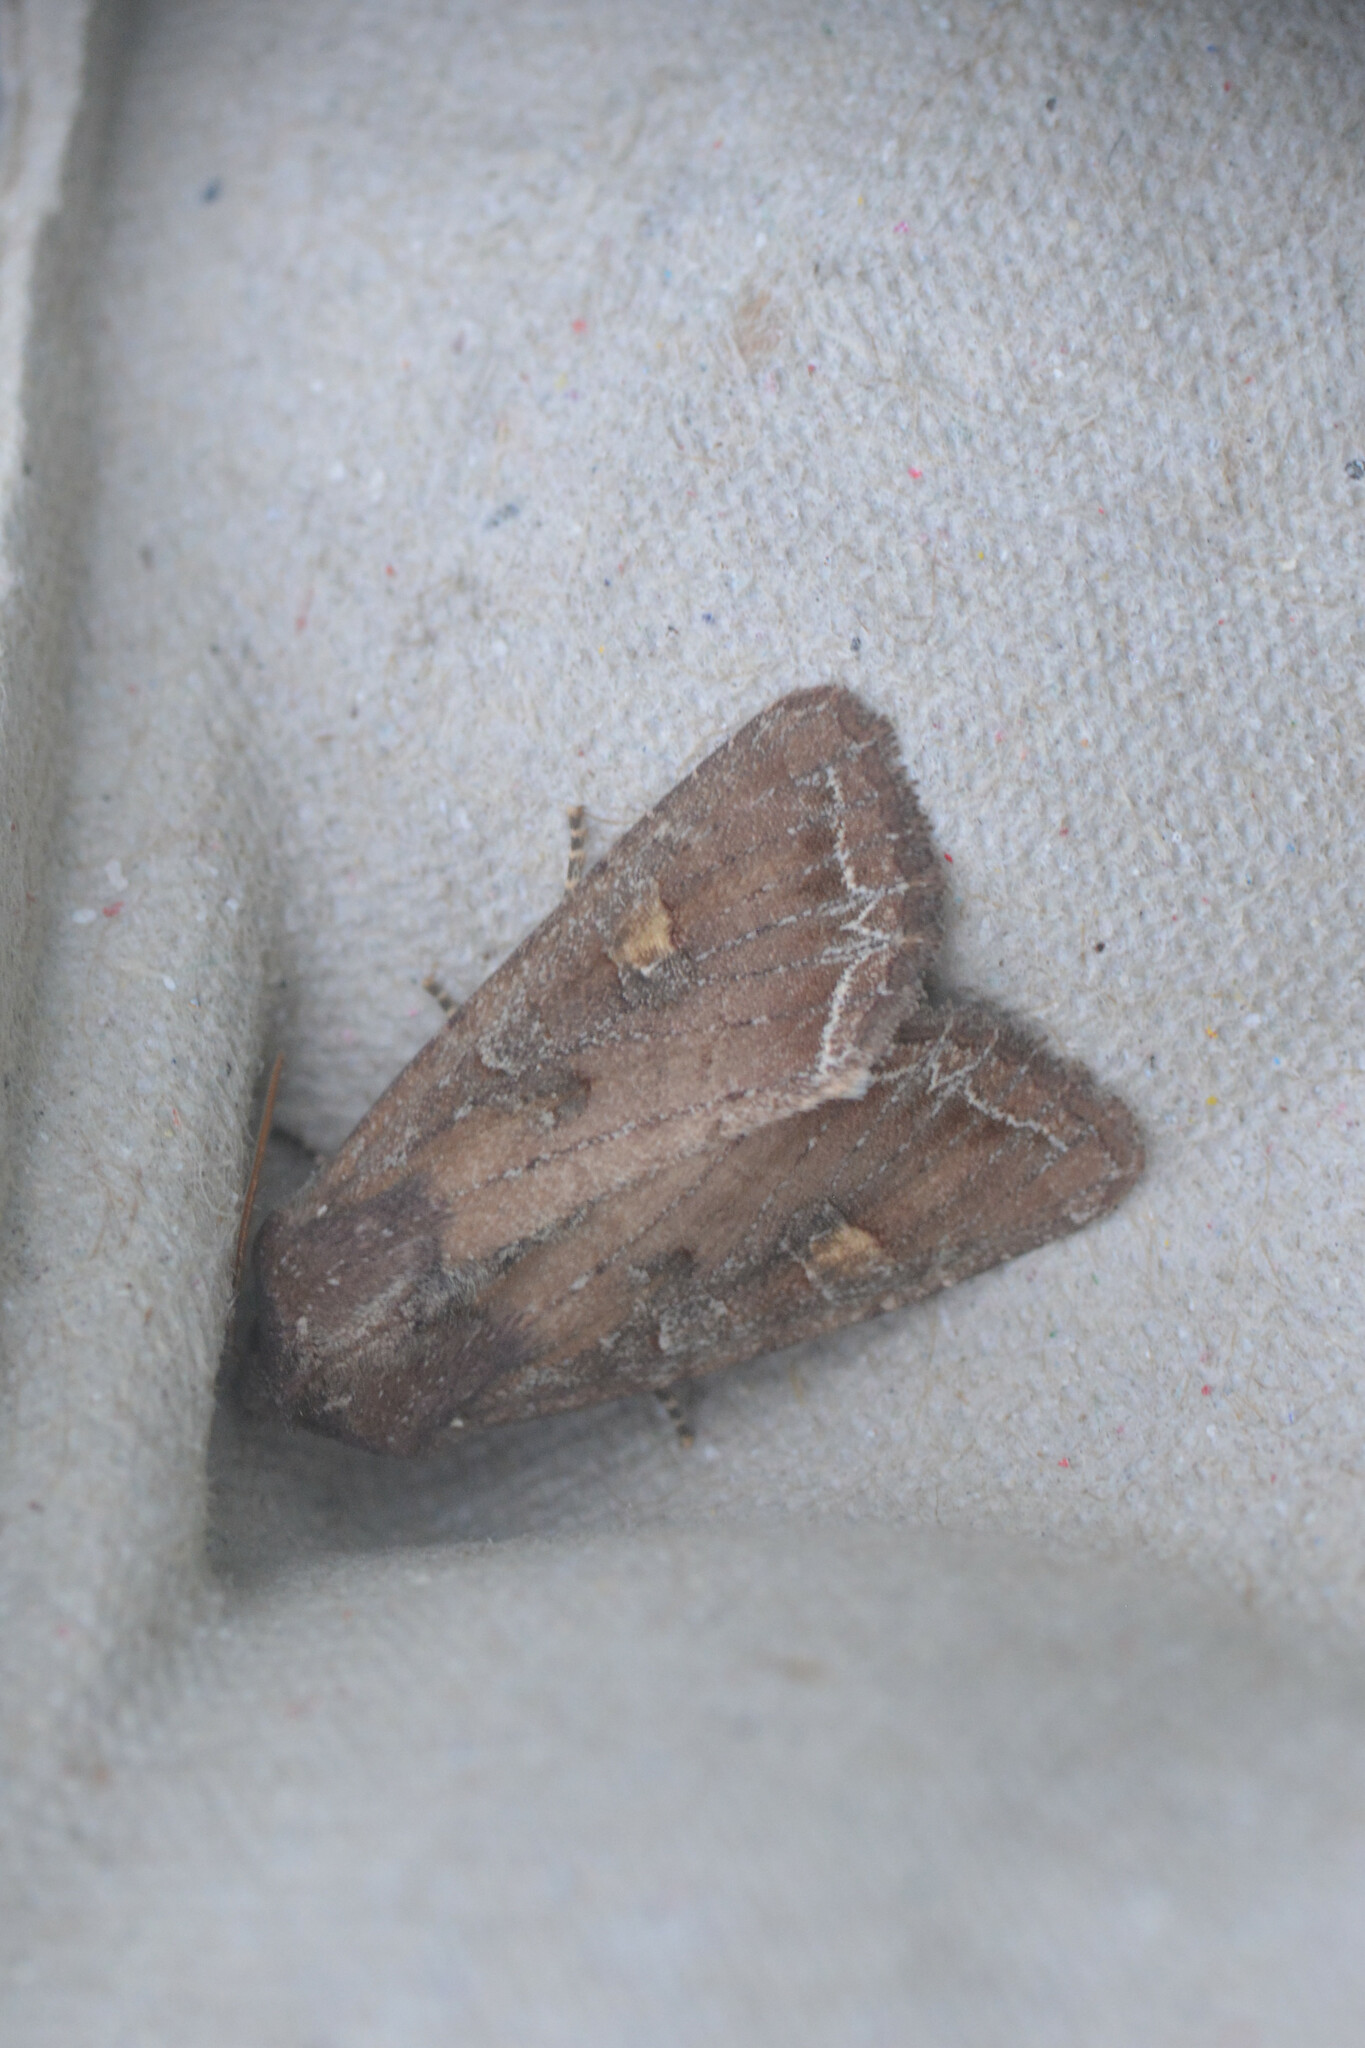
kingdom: Animalia
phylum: Arthropoda
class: Insecta
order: Lepidoptera
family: Noctuidae
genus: Lacanobia
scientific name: Lacanobia oleracea
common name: Bright-line brown-eye
